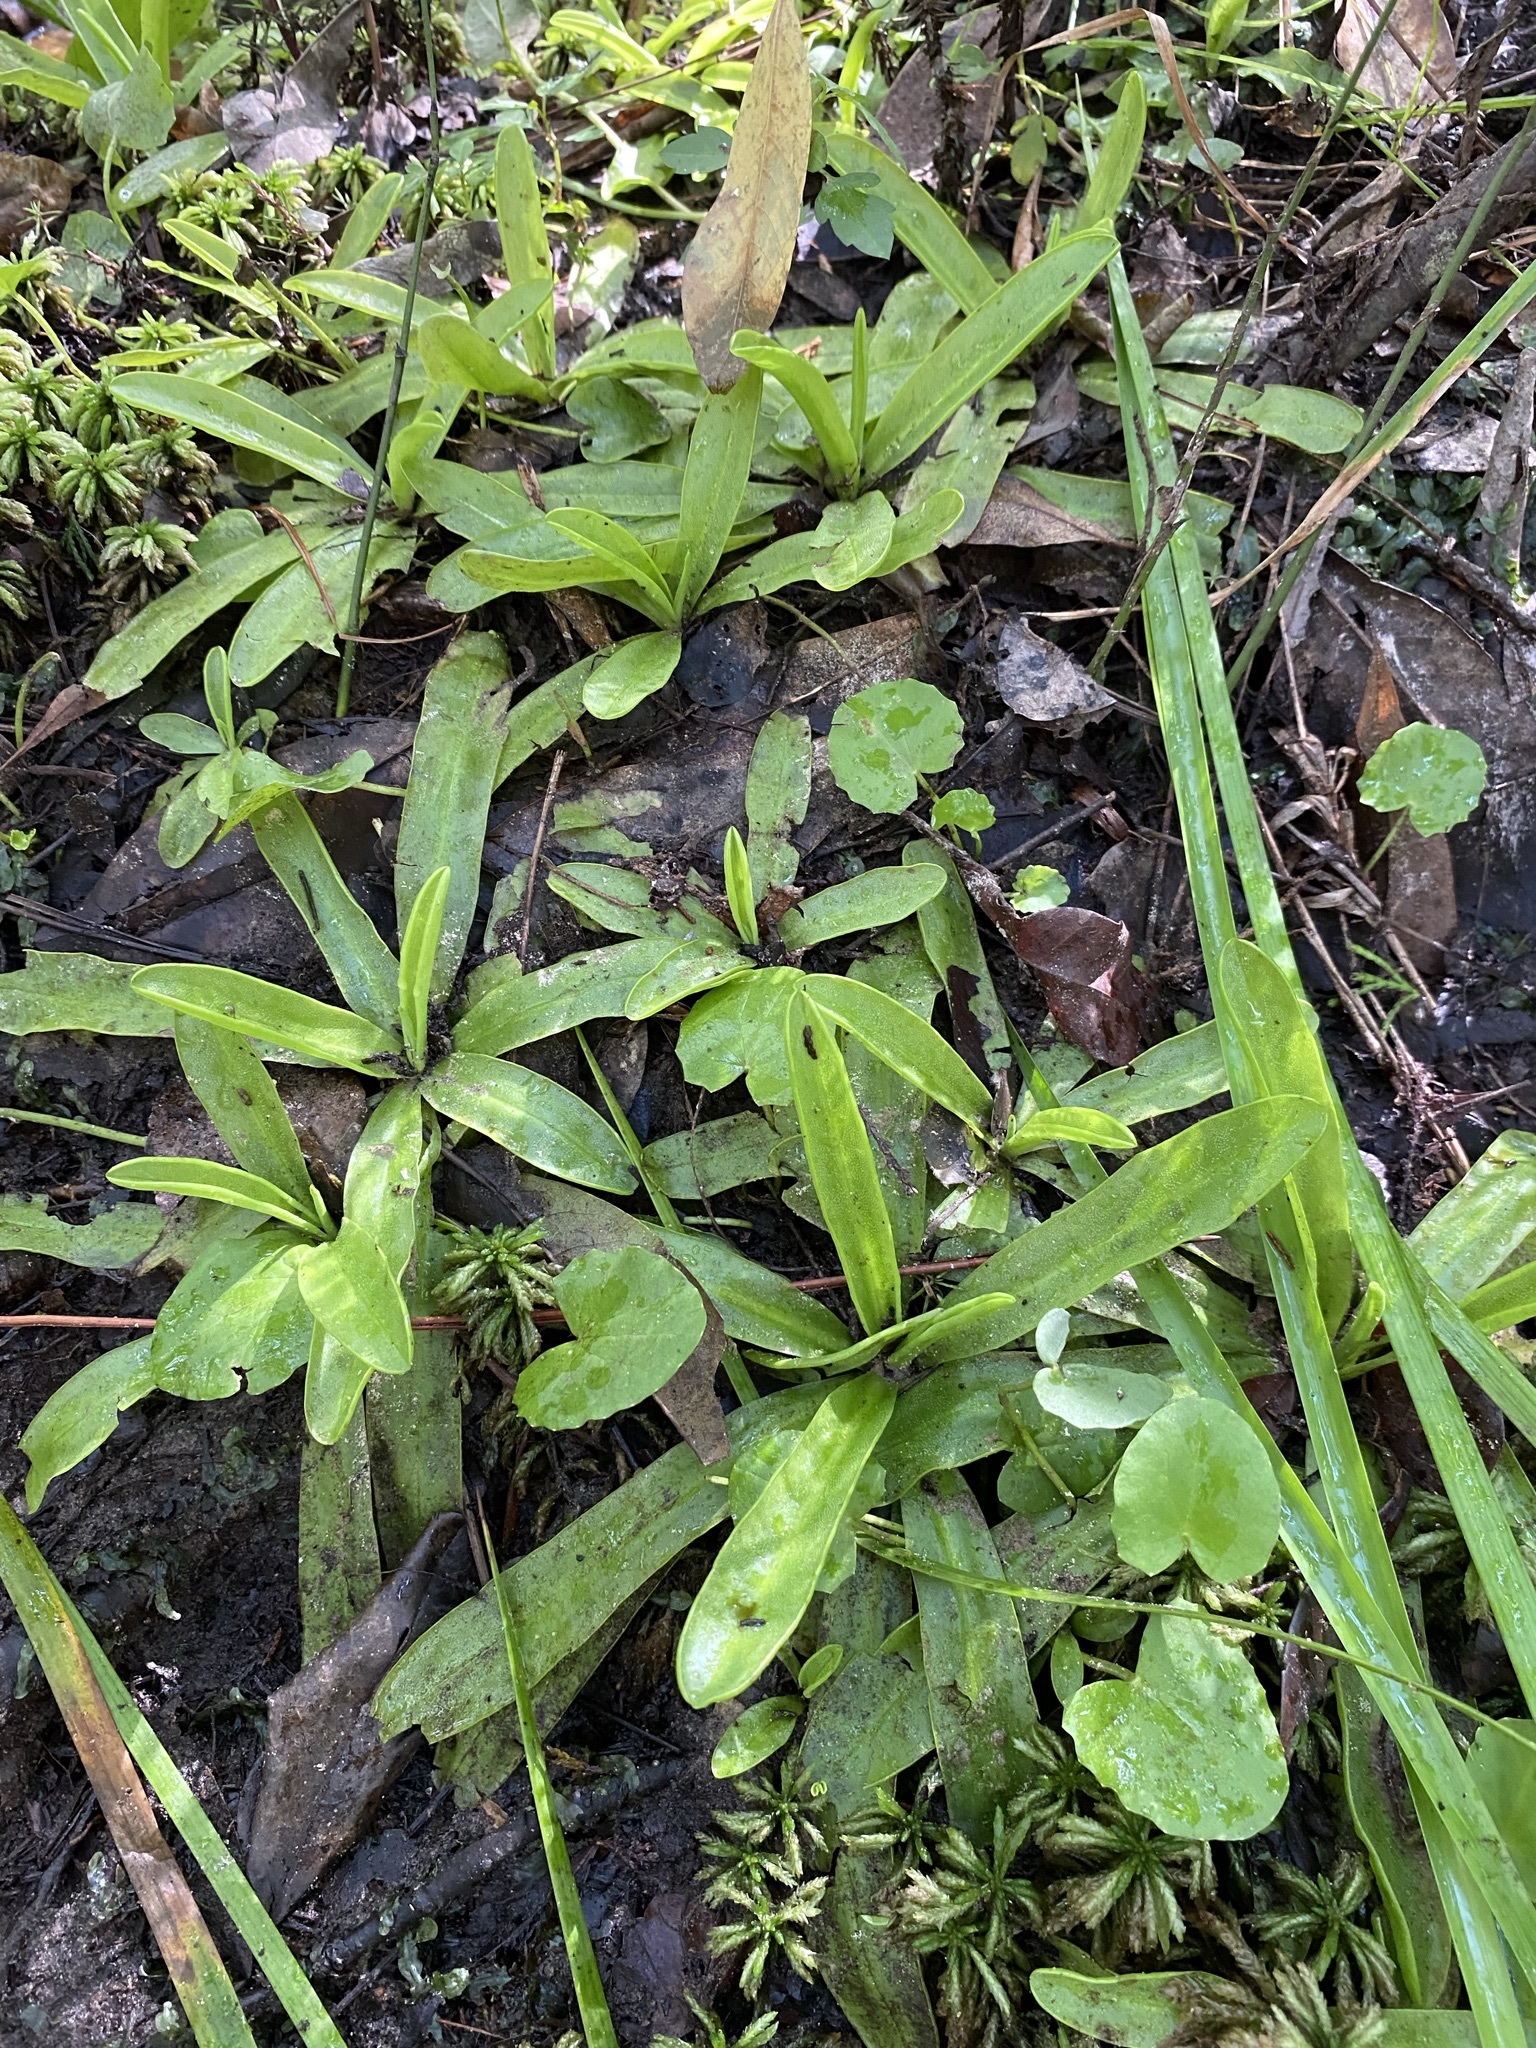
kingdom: Plantae
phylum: Tracheophyta
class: Magnoliopsida
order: Lamiales
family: Lentibulariaceae
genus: Pinguicula
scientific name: Pinguicula primuliflora
